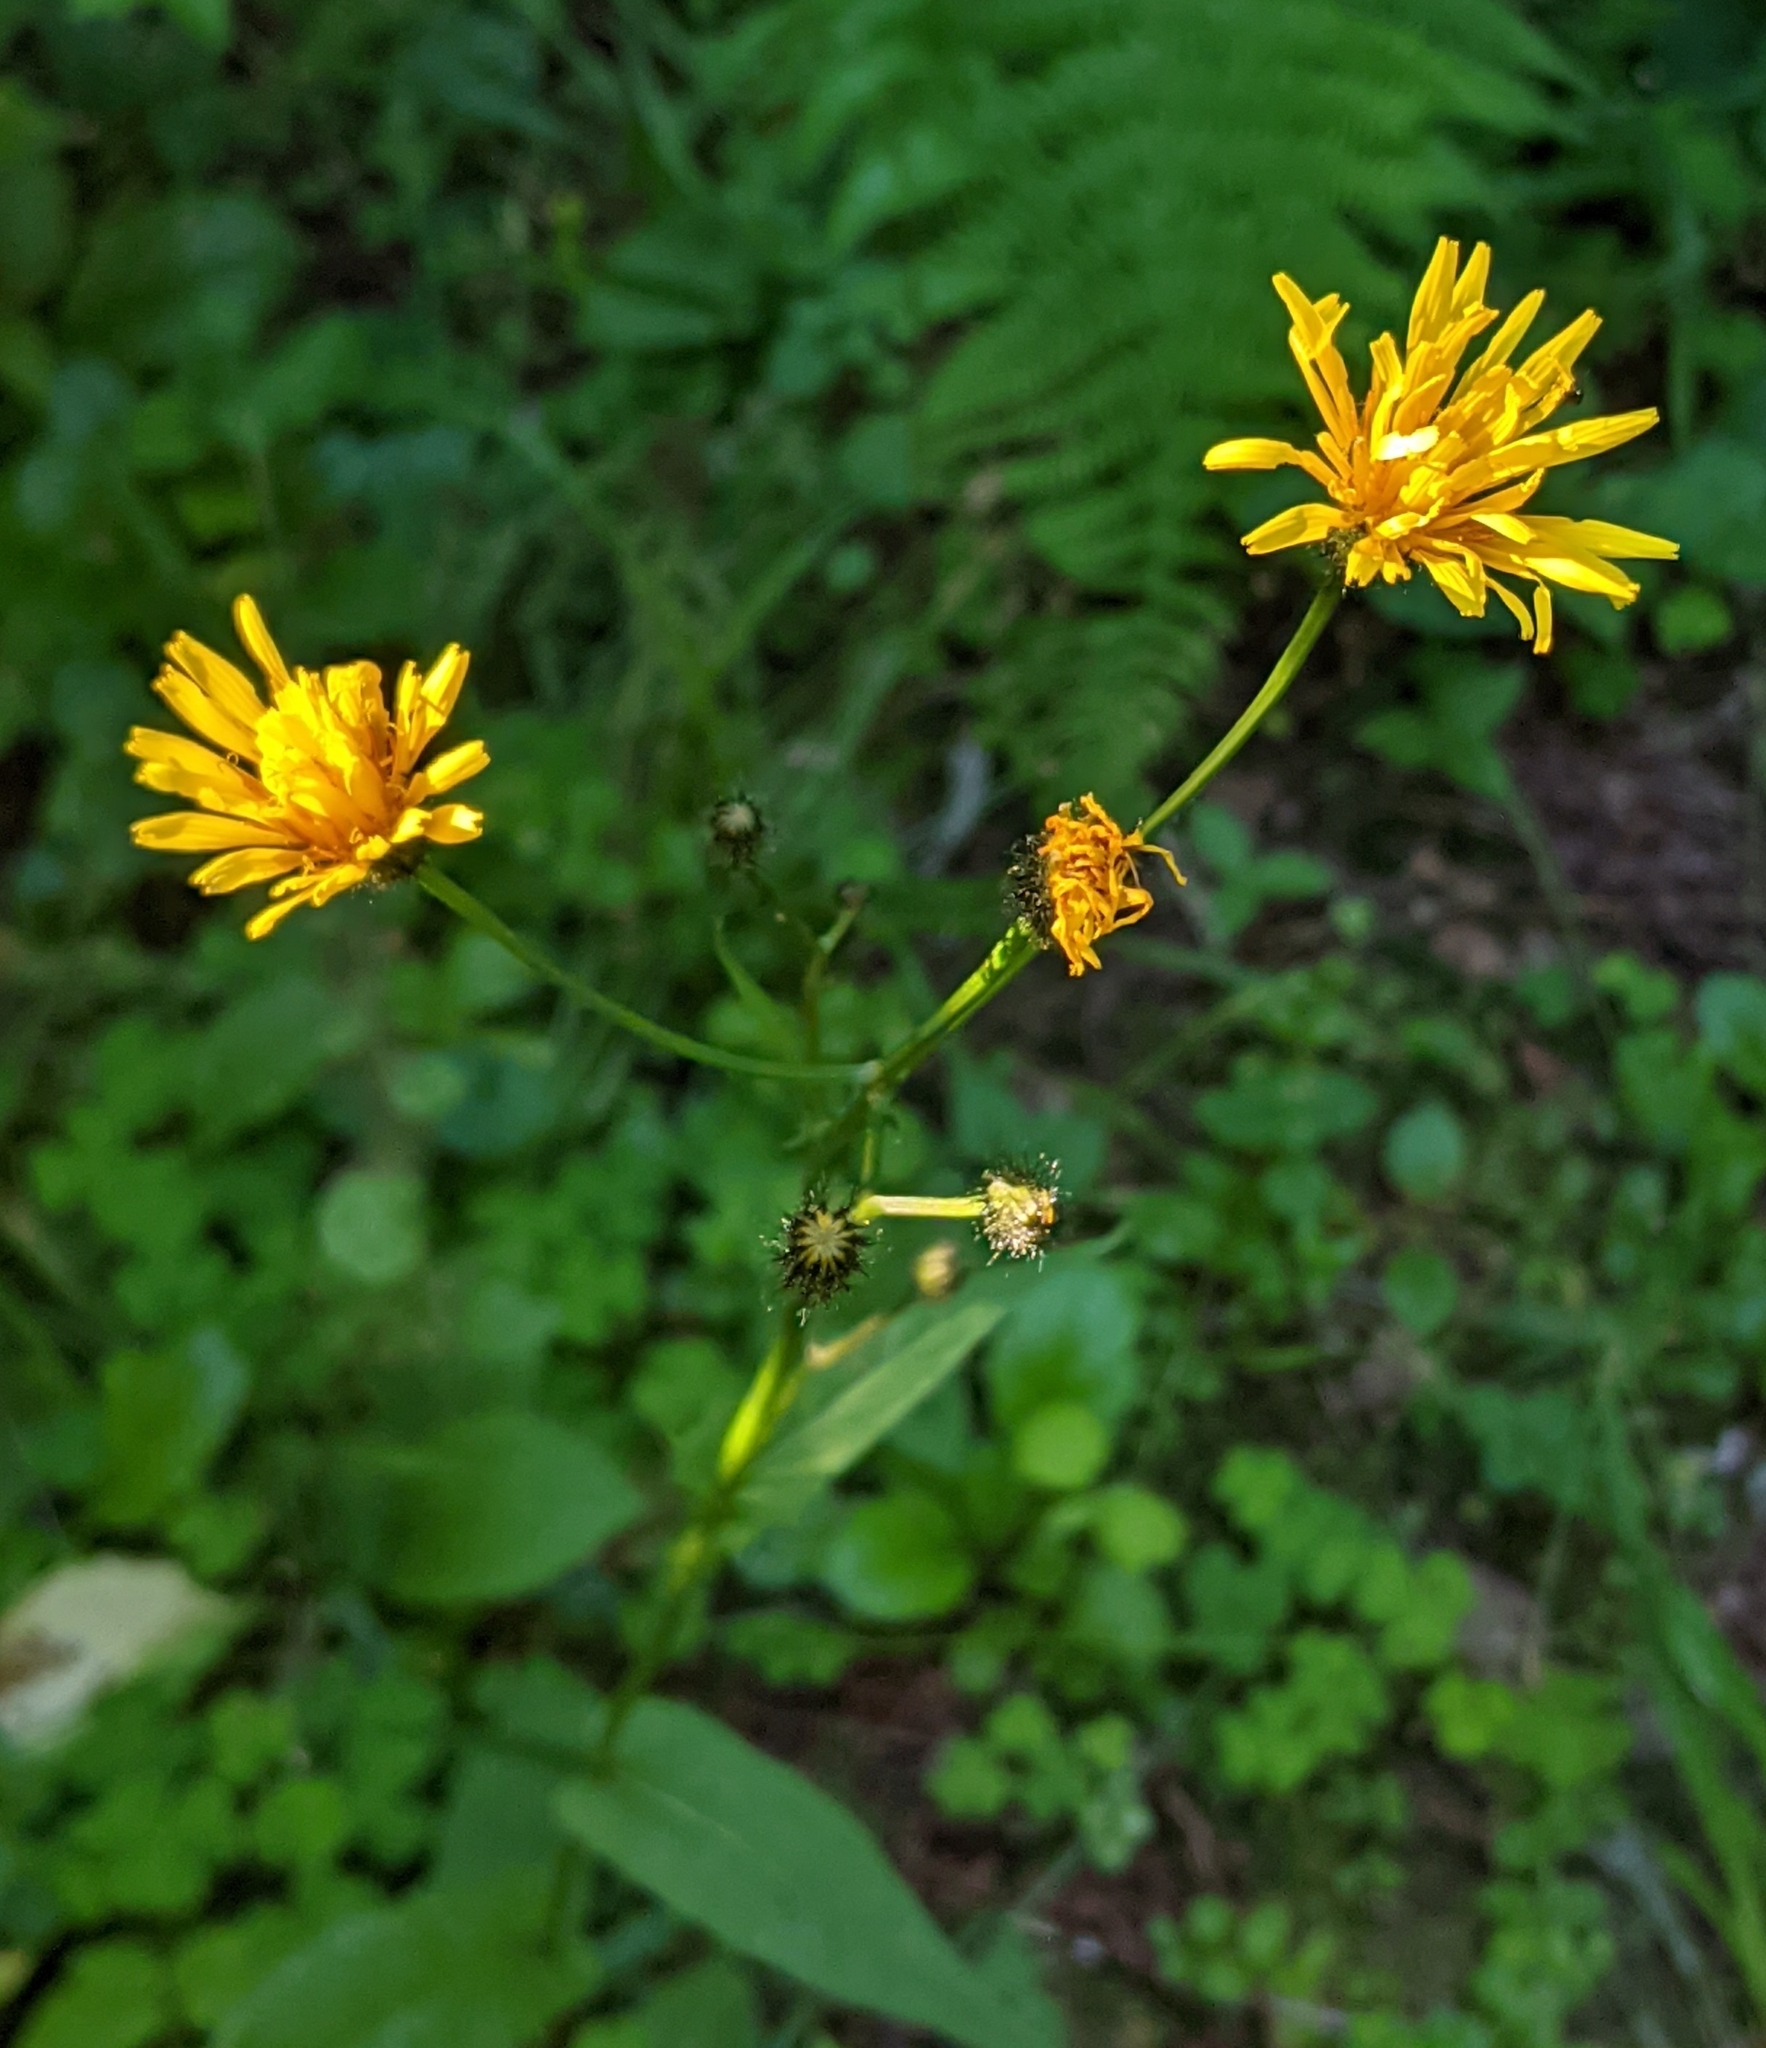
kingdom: Plantae
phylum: Tracheophyta
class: Magnoliopsida
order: Asterales
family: Asteraceae
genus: Crepis
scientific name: Crepis paludosa
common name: Marsh hawk's-beard
